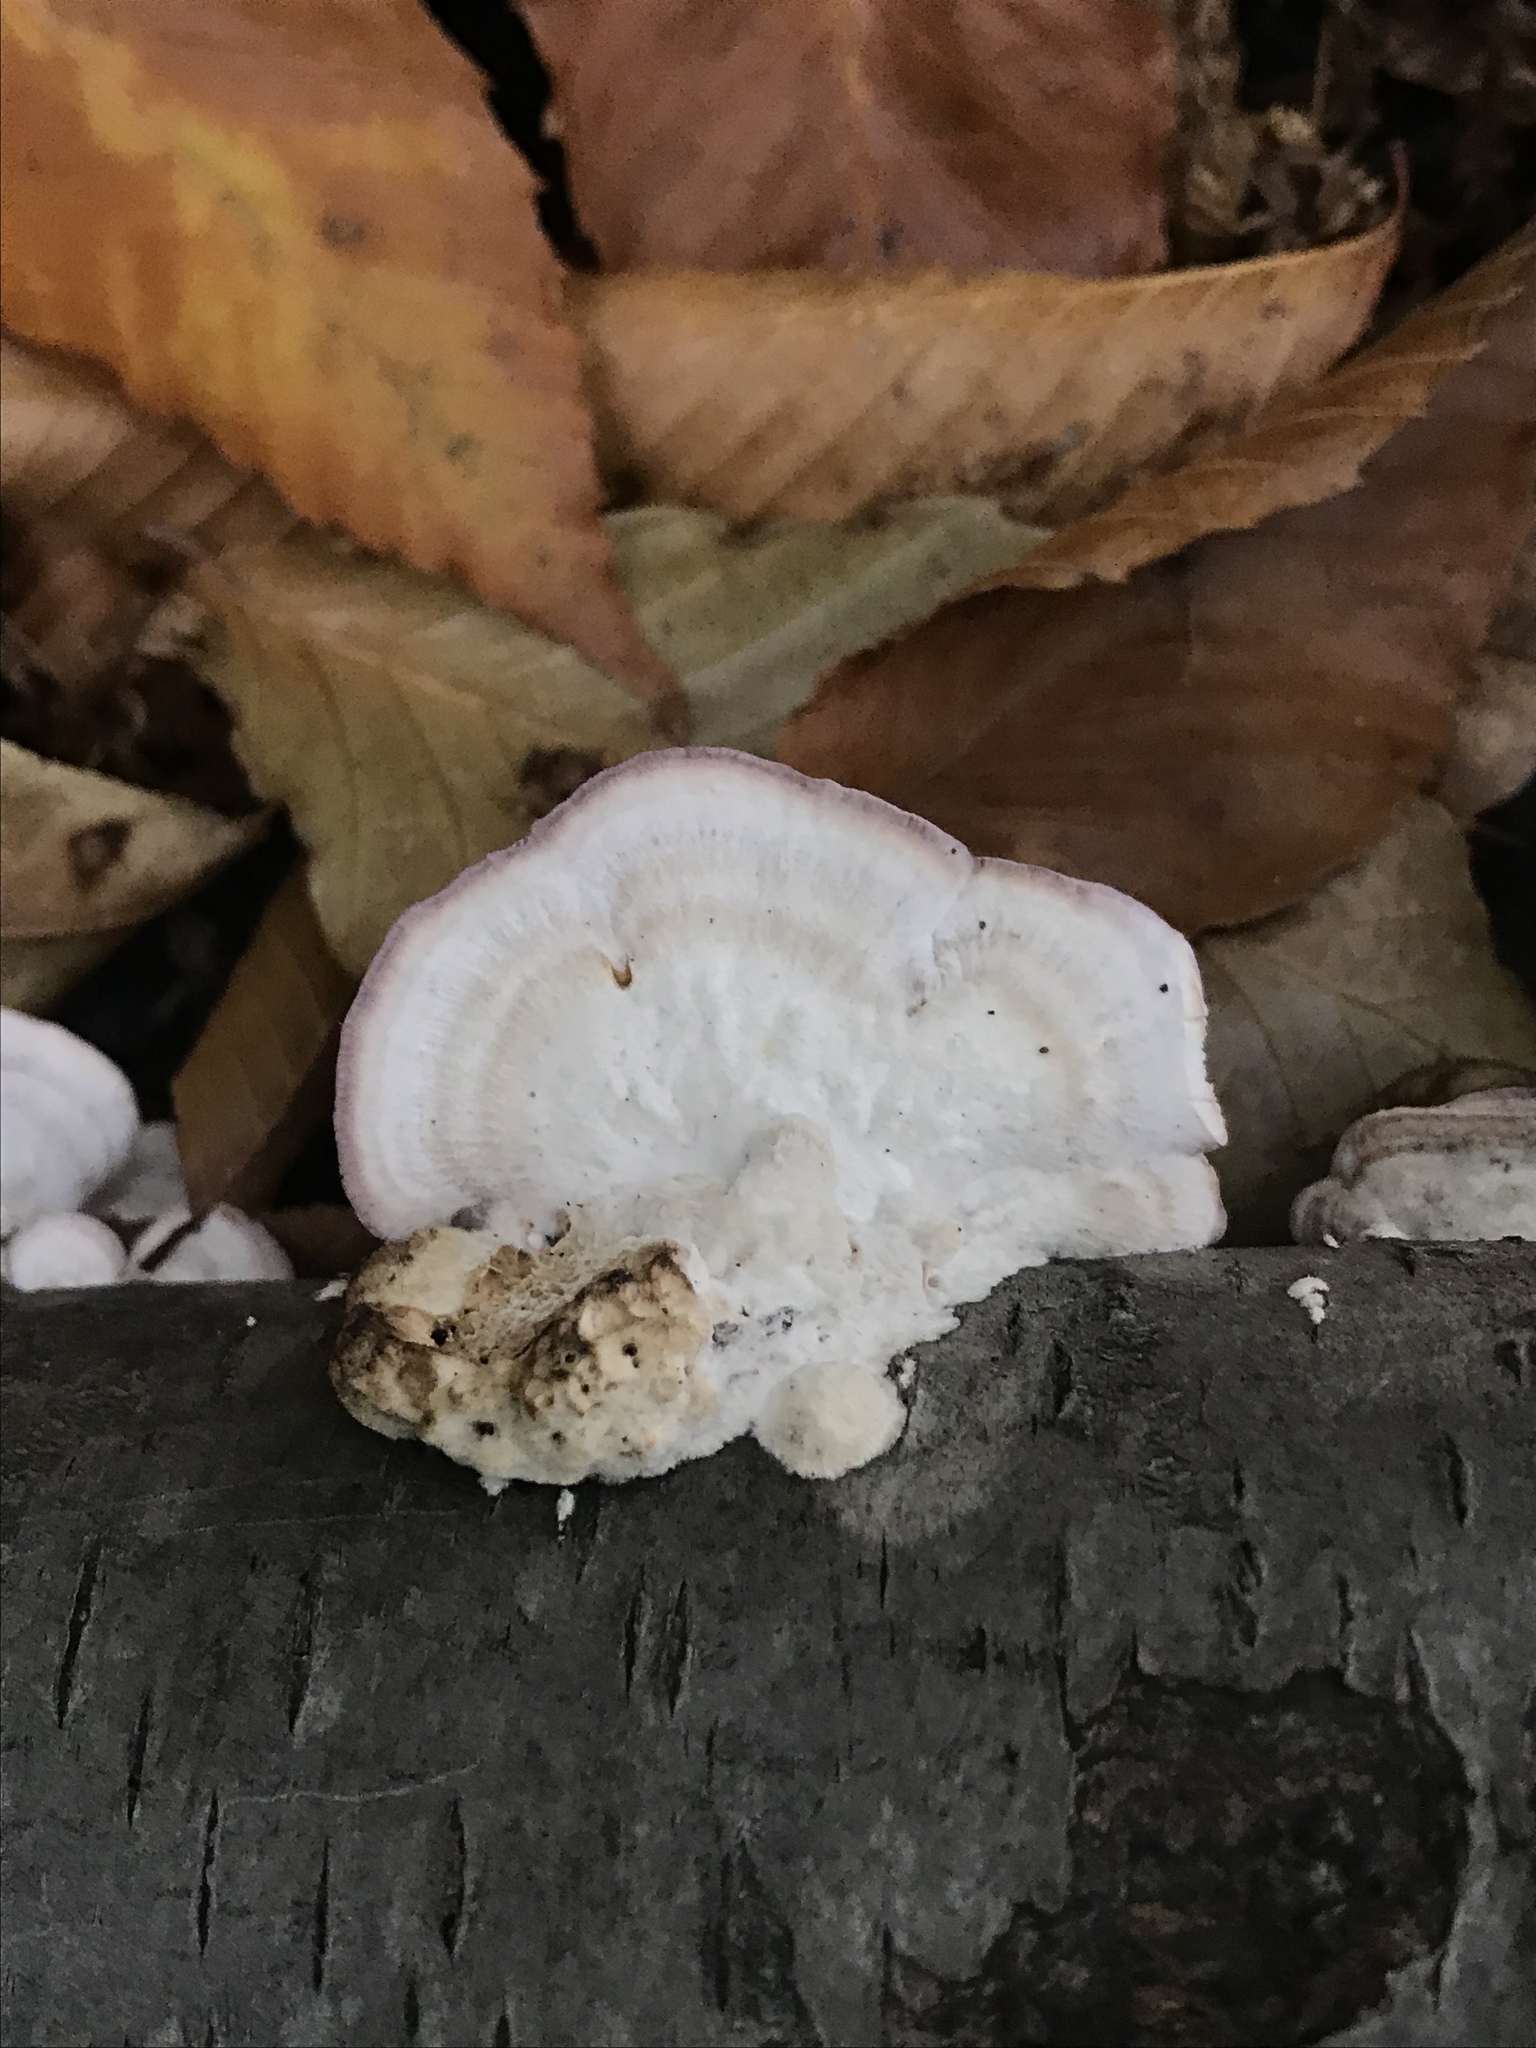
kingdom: Fungi
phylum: Basidiomycota
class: Agaricomycetes
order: Hymenochaetales
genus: Trichaptum
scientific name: Trichaptum biforme
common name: Violet-toothed polypore
